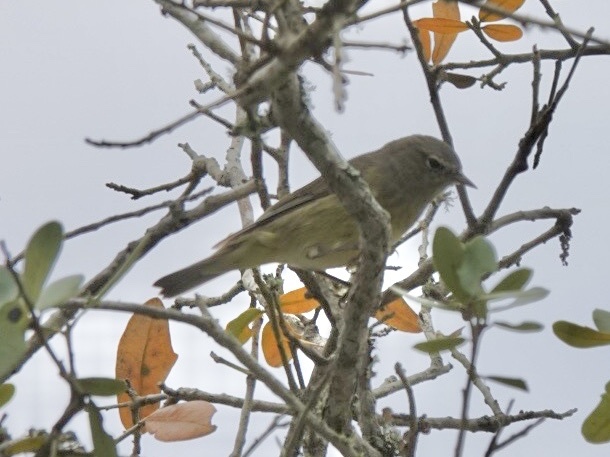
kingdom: Animalia
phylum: Chordata
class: Aves
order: Passeriformes
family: Parulidae
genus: Leiothlypis
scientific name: Leiothlypis celata
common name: Orange-crowned warbler
